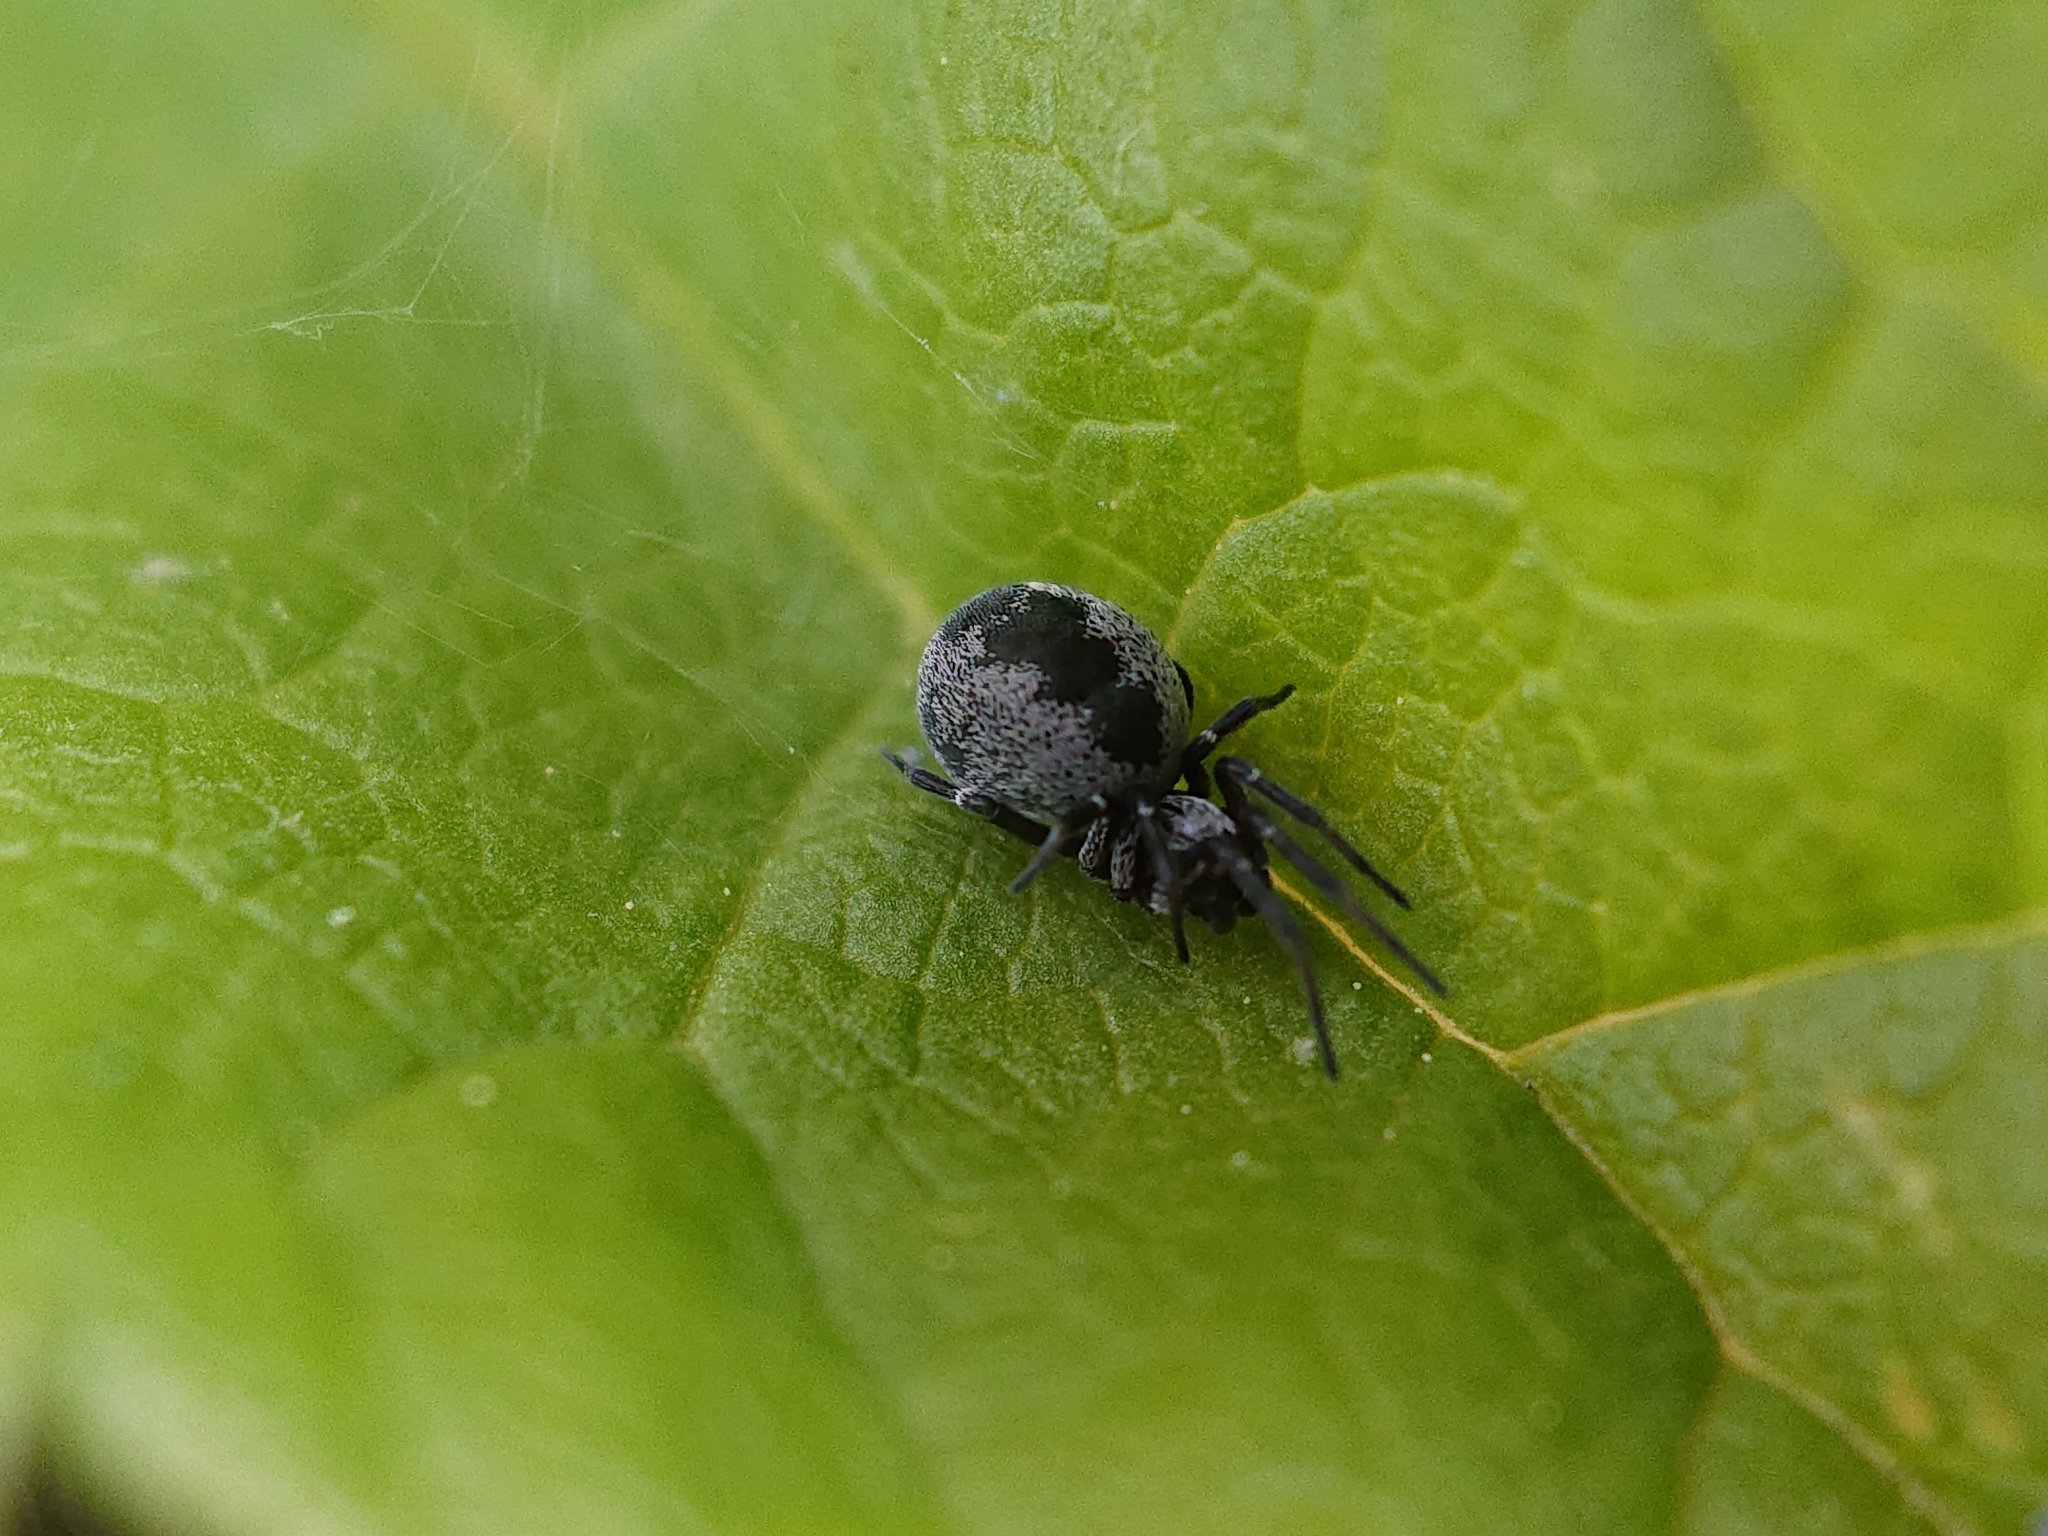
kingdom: Animalia
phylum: Arthropoda
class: Arachnida
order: Araneae
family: Dictynidae
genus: Brigittea
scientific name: Brigittea latens
